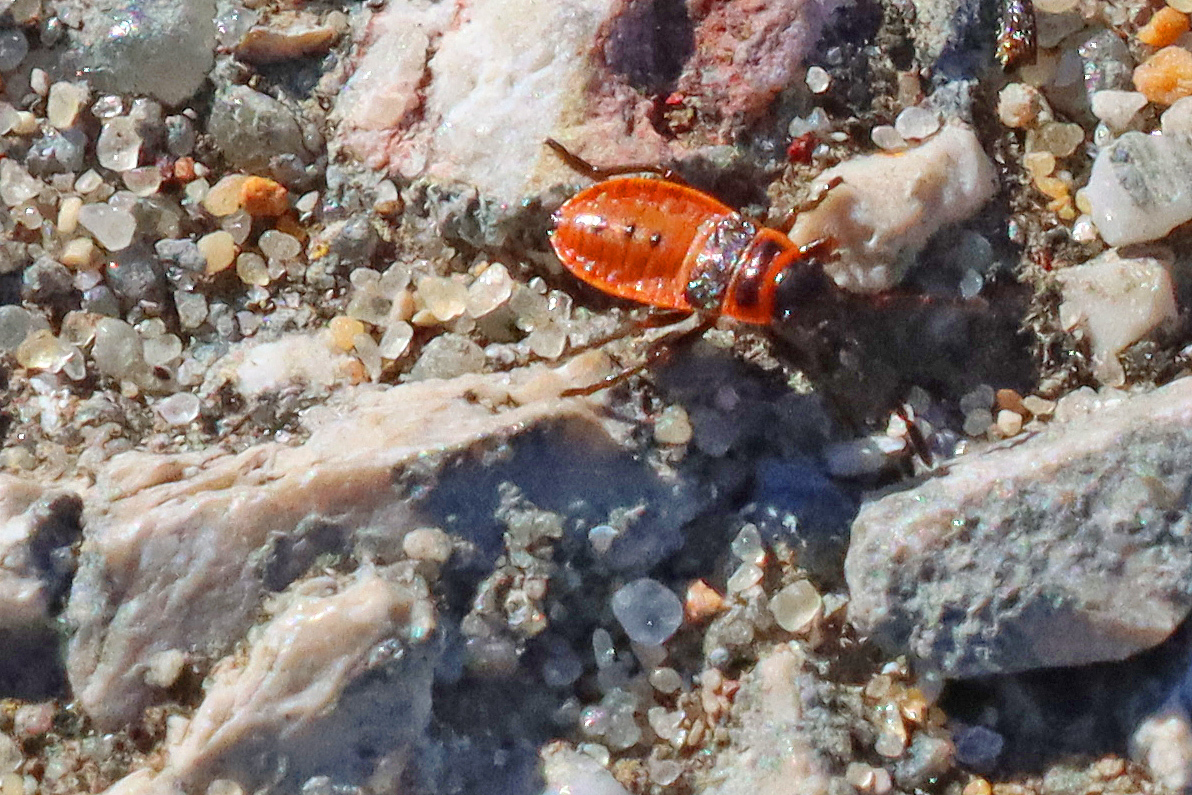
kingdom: Animalia
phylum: Arthropoda
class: Insecta
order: Hemiptera
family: Pyrrhocoridae
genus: Pyrrhocoris
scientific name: Pyrrhocoris apterus
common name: Firebug
